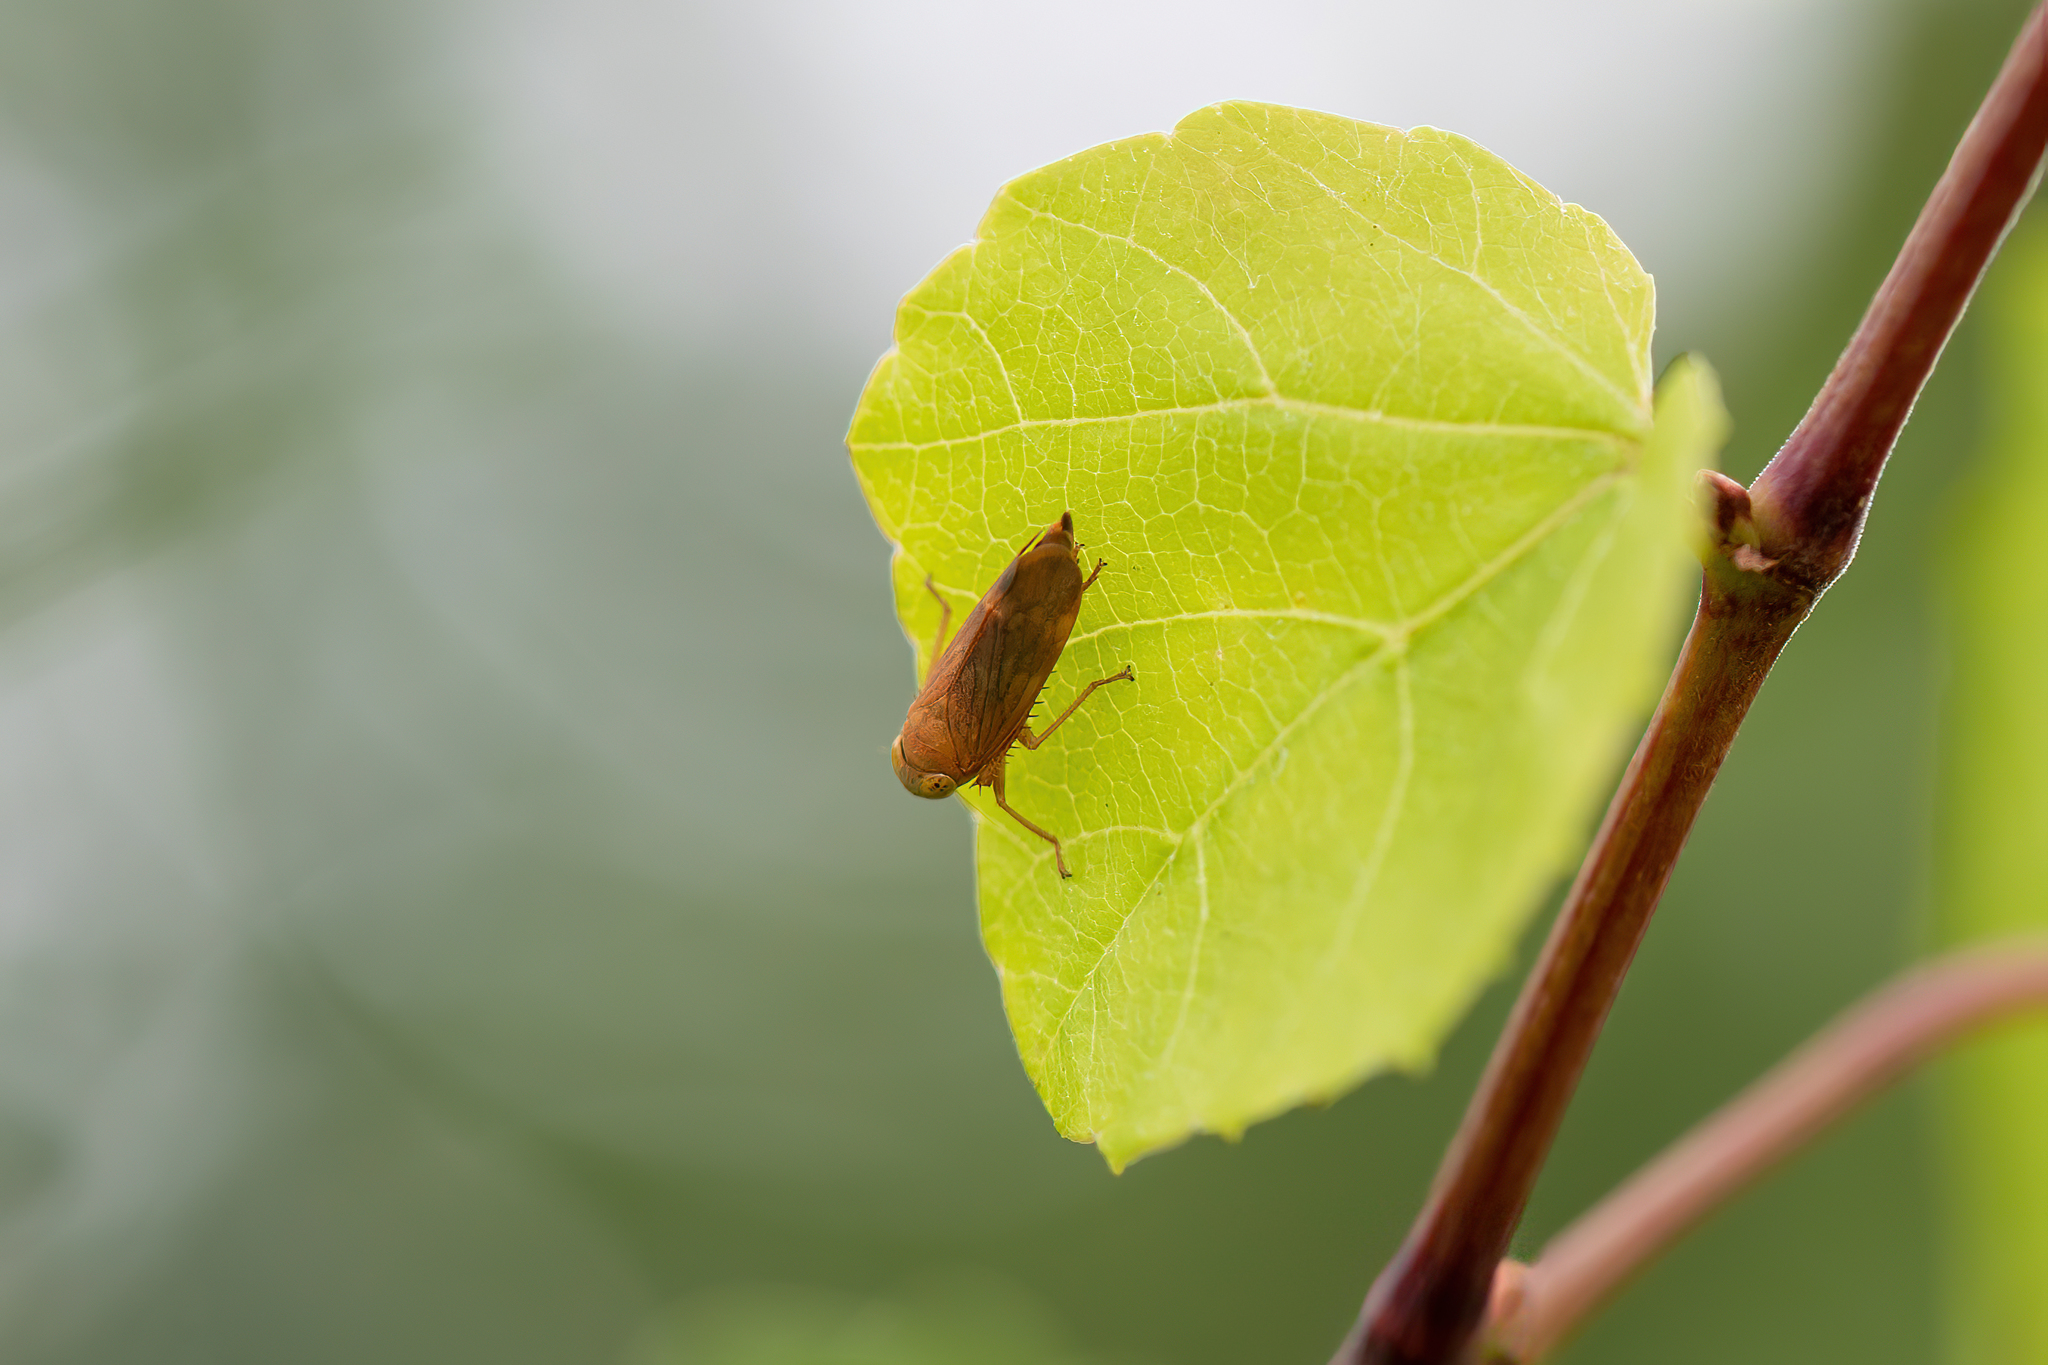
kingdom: Animalia
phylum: Arthropoda
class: Insecta
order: Hemiptera
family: Cicadellidae
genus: Jikradia
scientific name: Jikradia olitoria
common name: Coppery leafhopper
